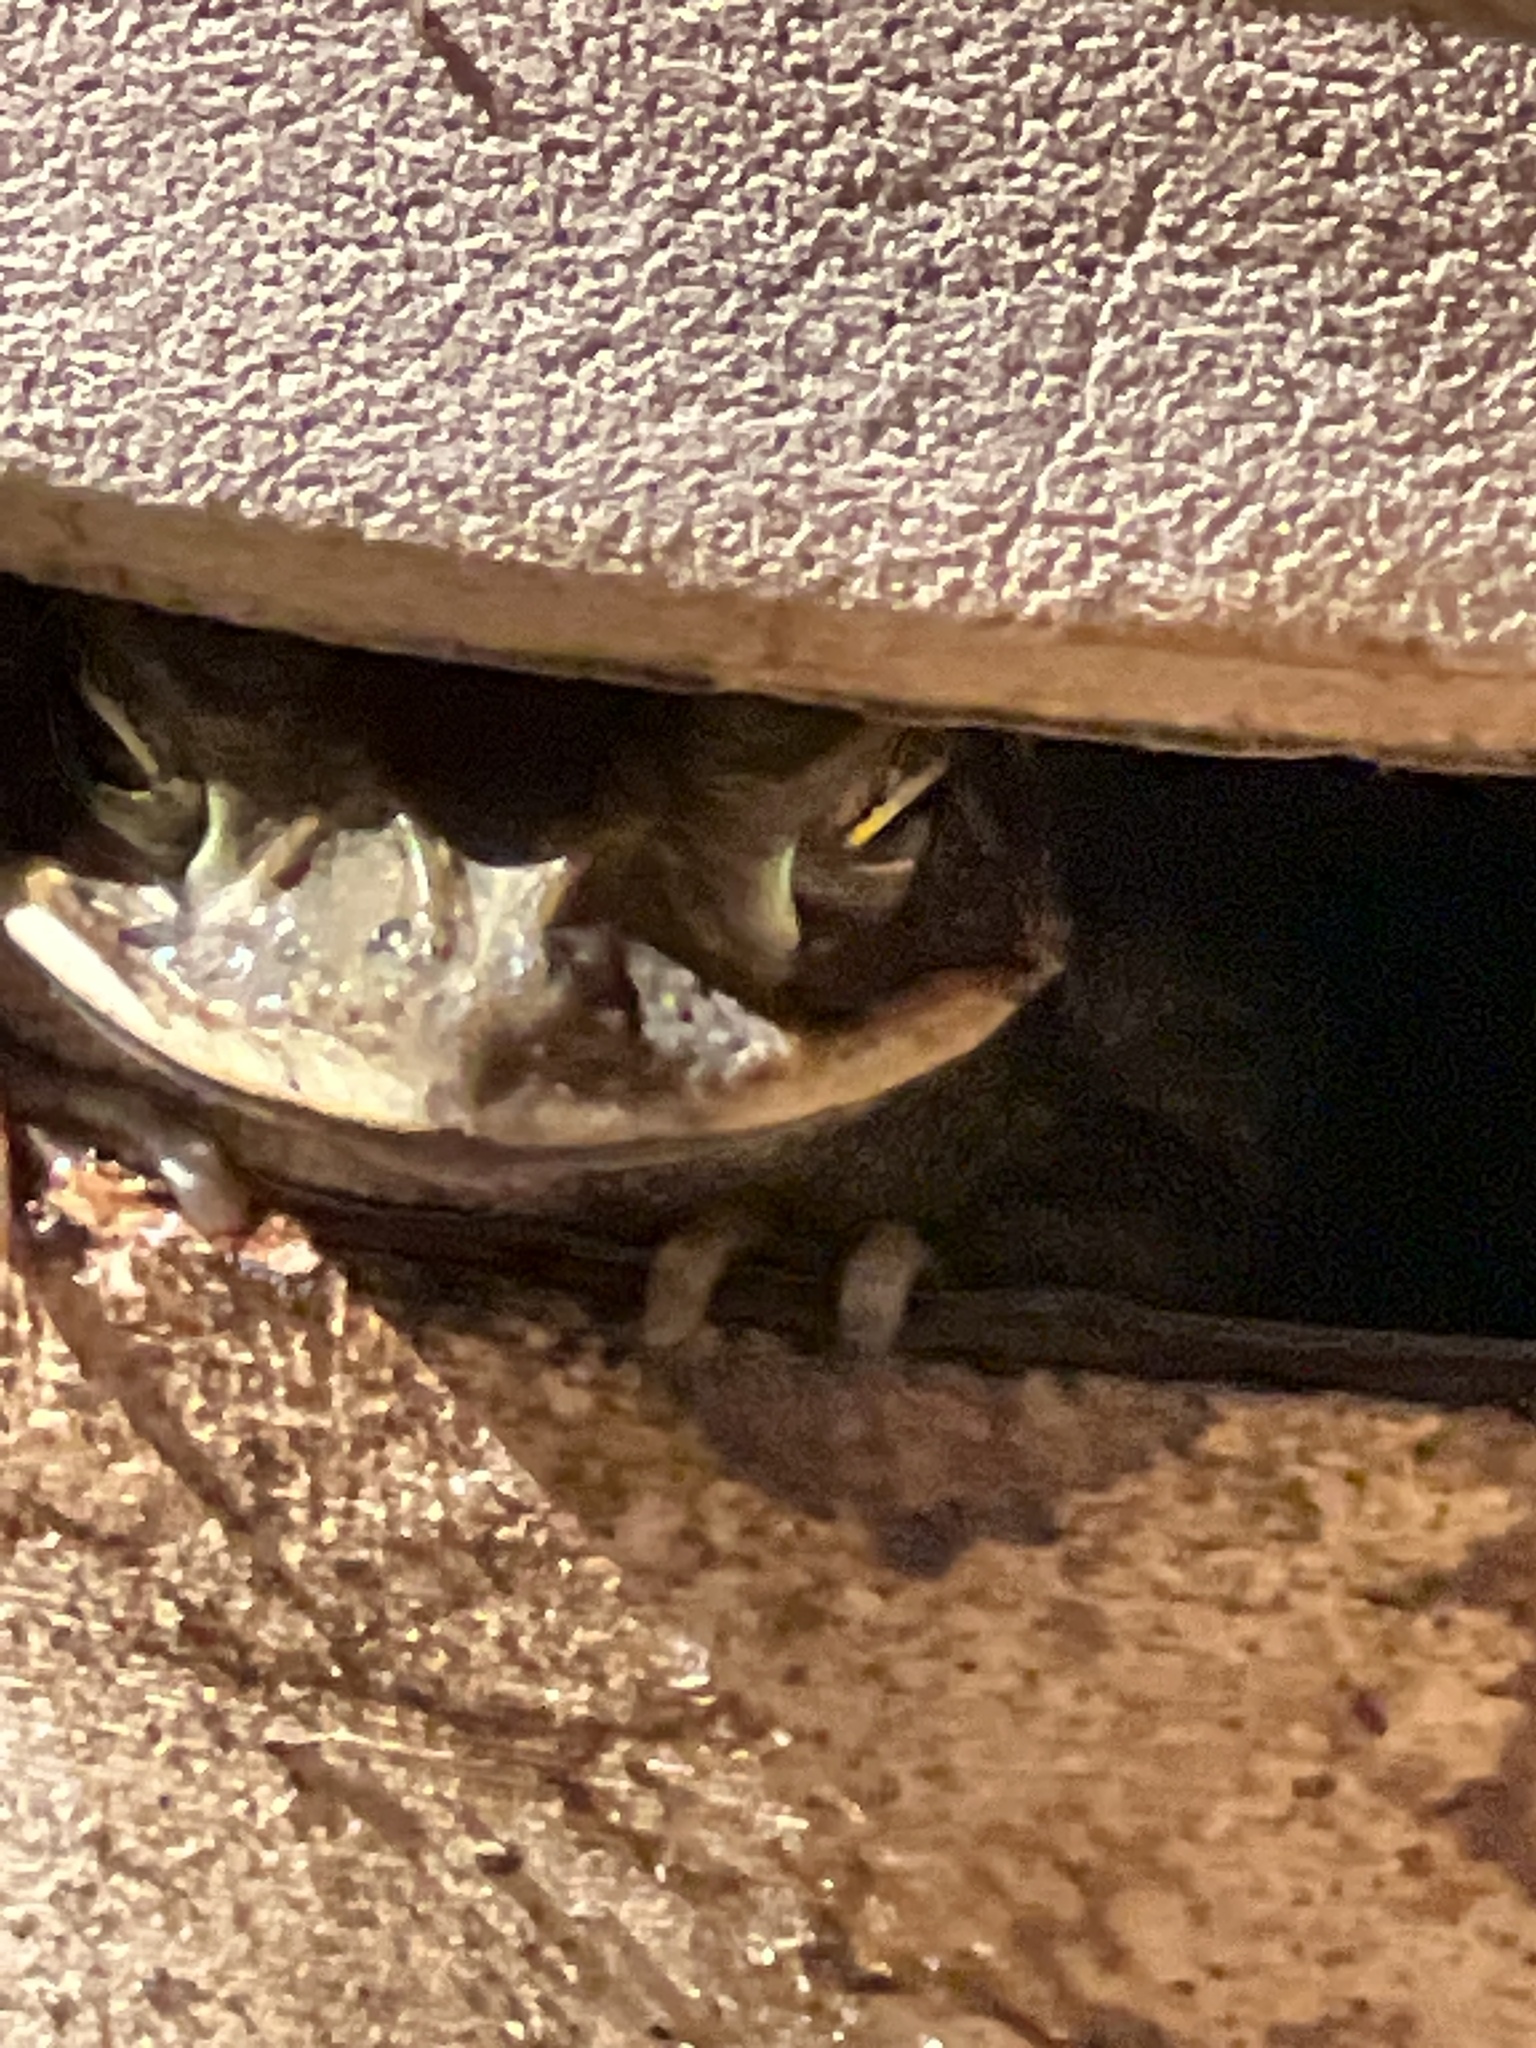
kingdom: Animalia
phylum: Chordata
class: Amphibia
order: Anura
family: Bufonidae
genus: Incilius
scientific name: Incilius nebulifer
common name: Gulf coast toad
